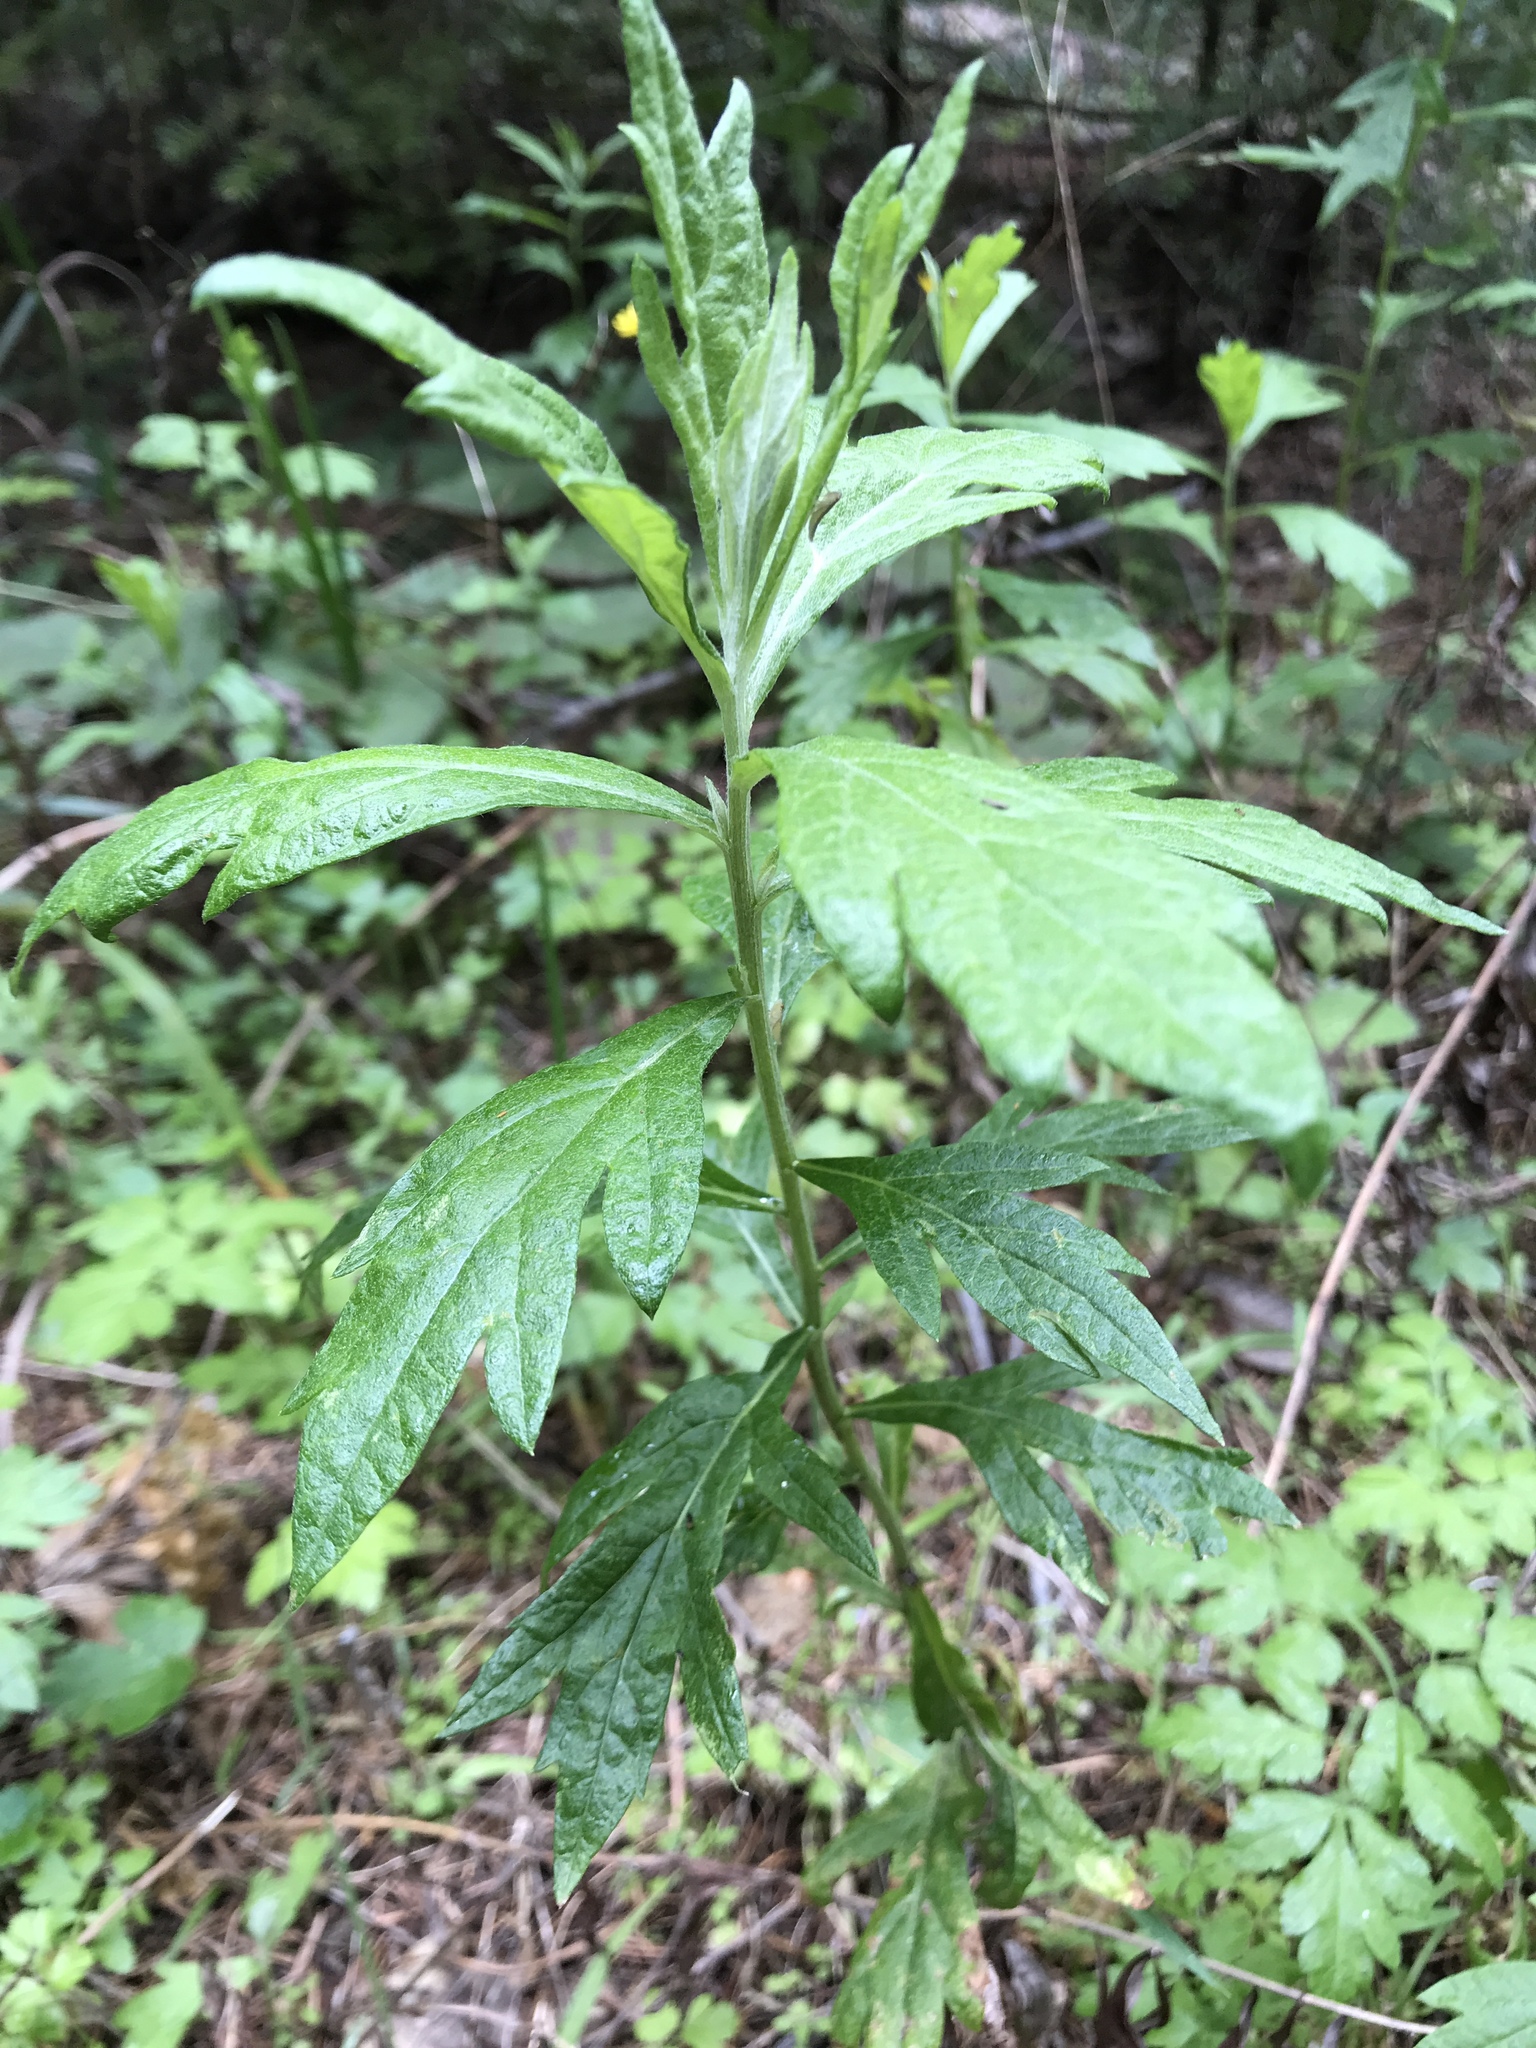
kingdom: Plantae
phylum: Tracheophyta
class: Magnoliopsida
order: Asterales
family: Asteraceae
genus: Artemisia
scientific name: Artemisia douglasiana
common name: Northwest mugwort
